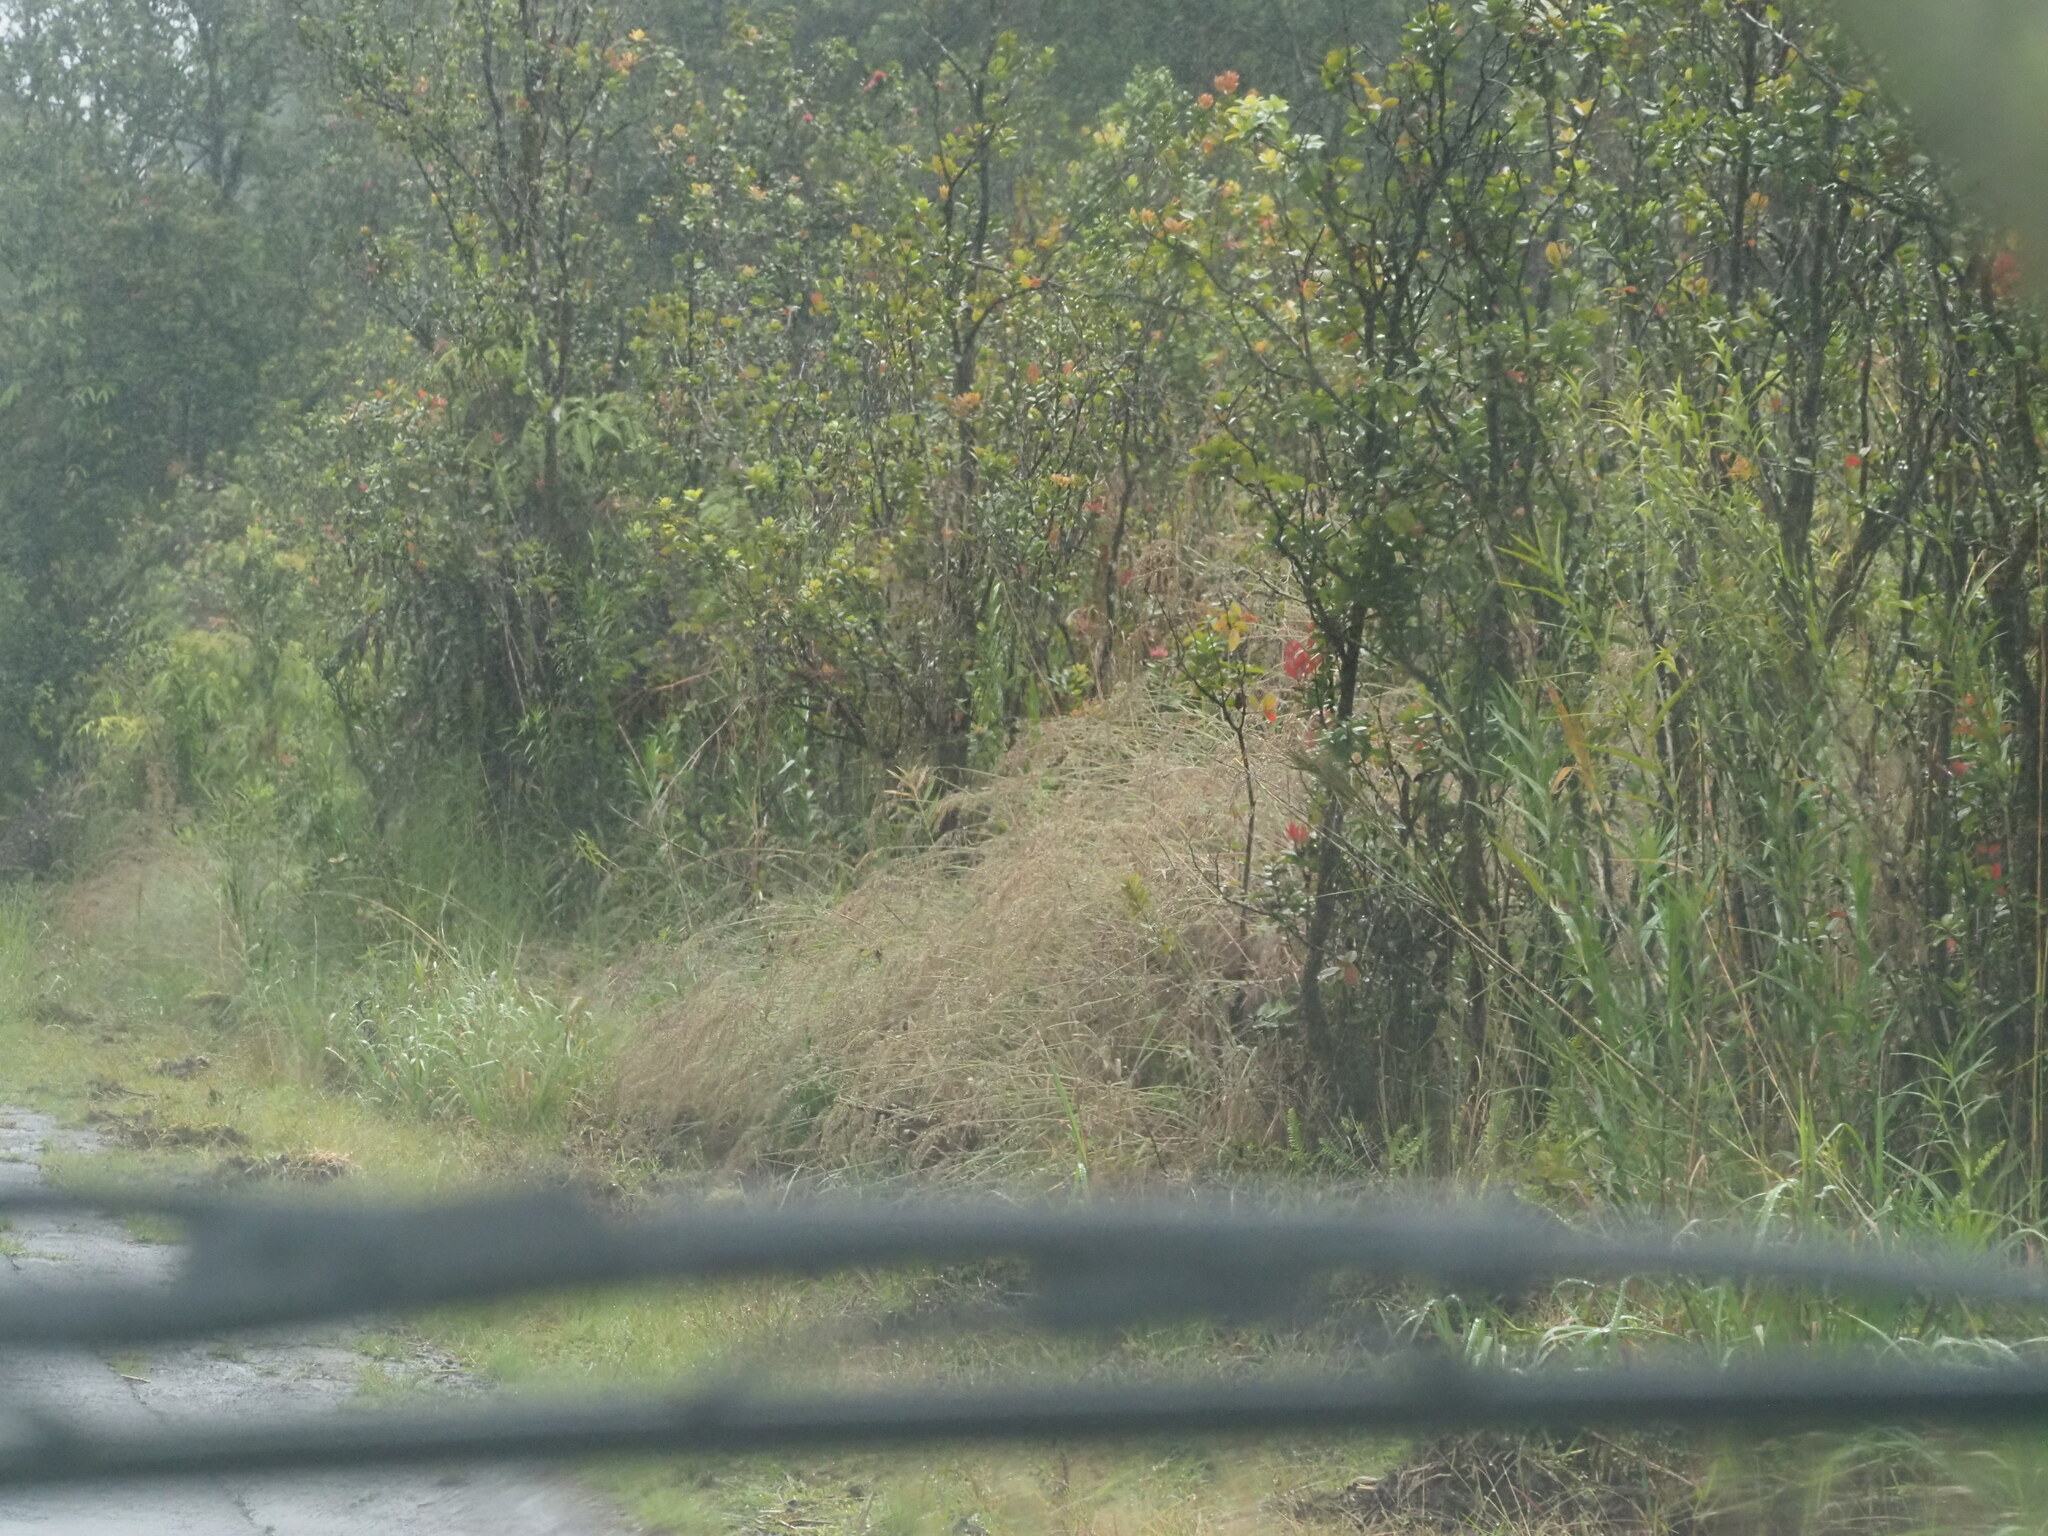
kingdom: Plantae
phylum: Tracheophyta
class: Liliopsida
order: Poales
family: Poaceae
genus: Melinis
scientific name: Melinis minutiflora
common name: Molassesgrass
